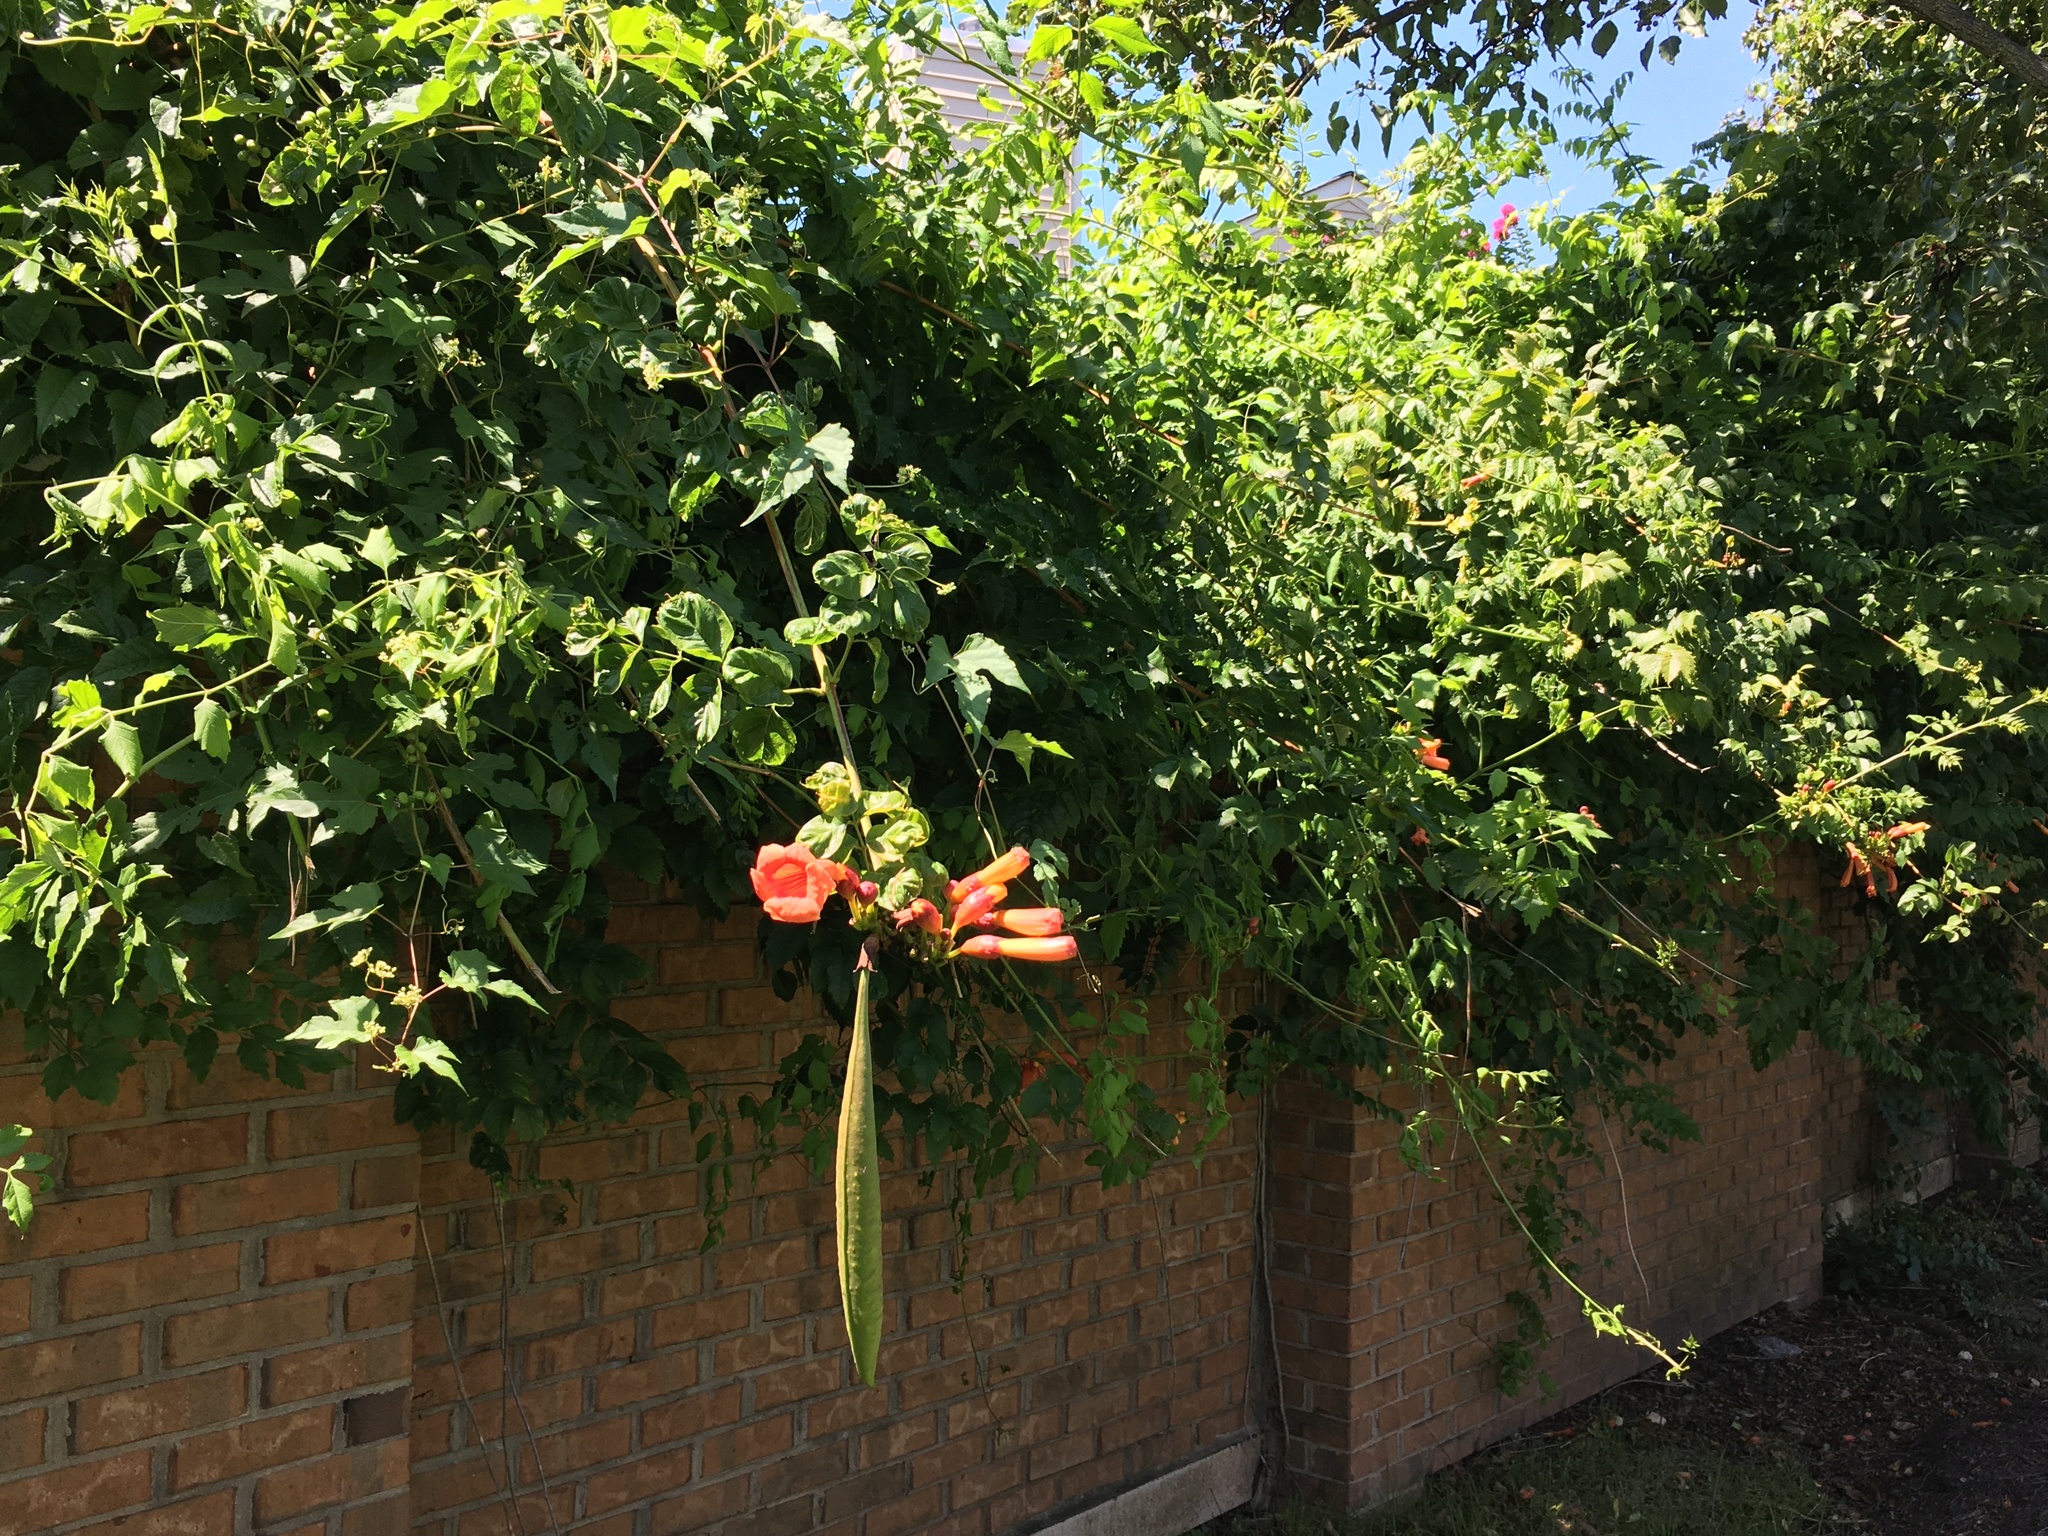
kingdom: Plantae
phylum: Tracheophyta
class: Magnoliopsida
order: Lamiales
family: Bignoniaceae
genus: Campsis
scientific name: Campsis radicans
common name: Trumpet-creeper
